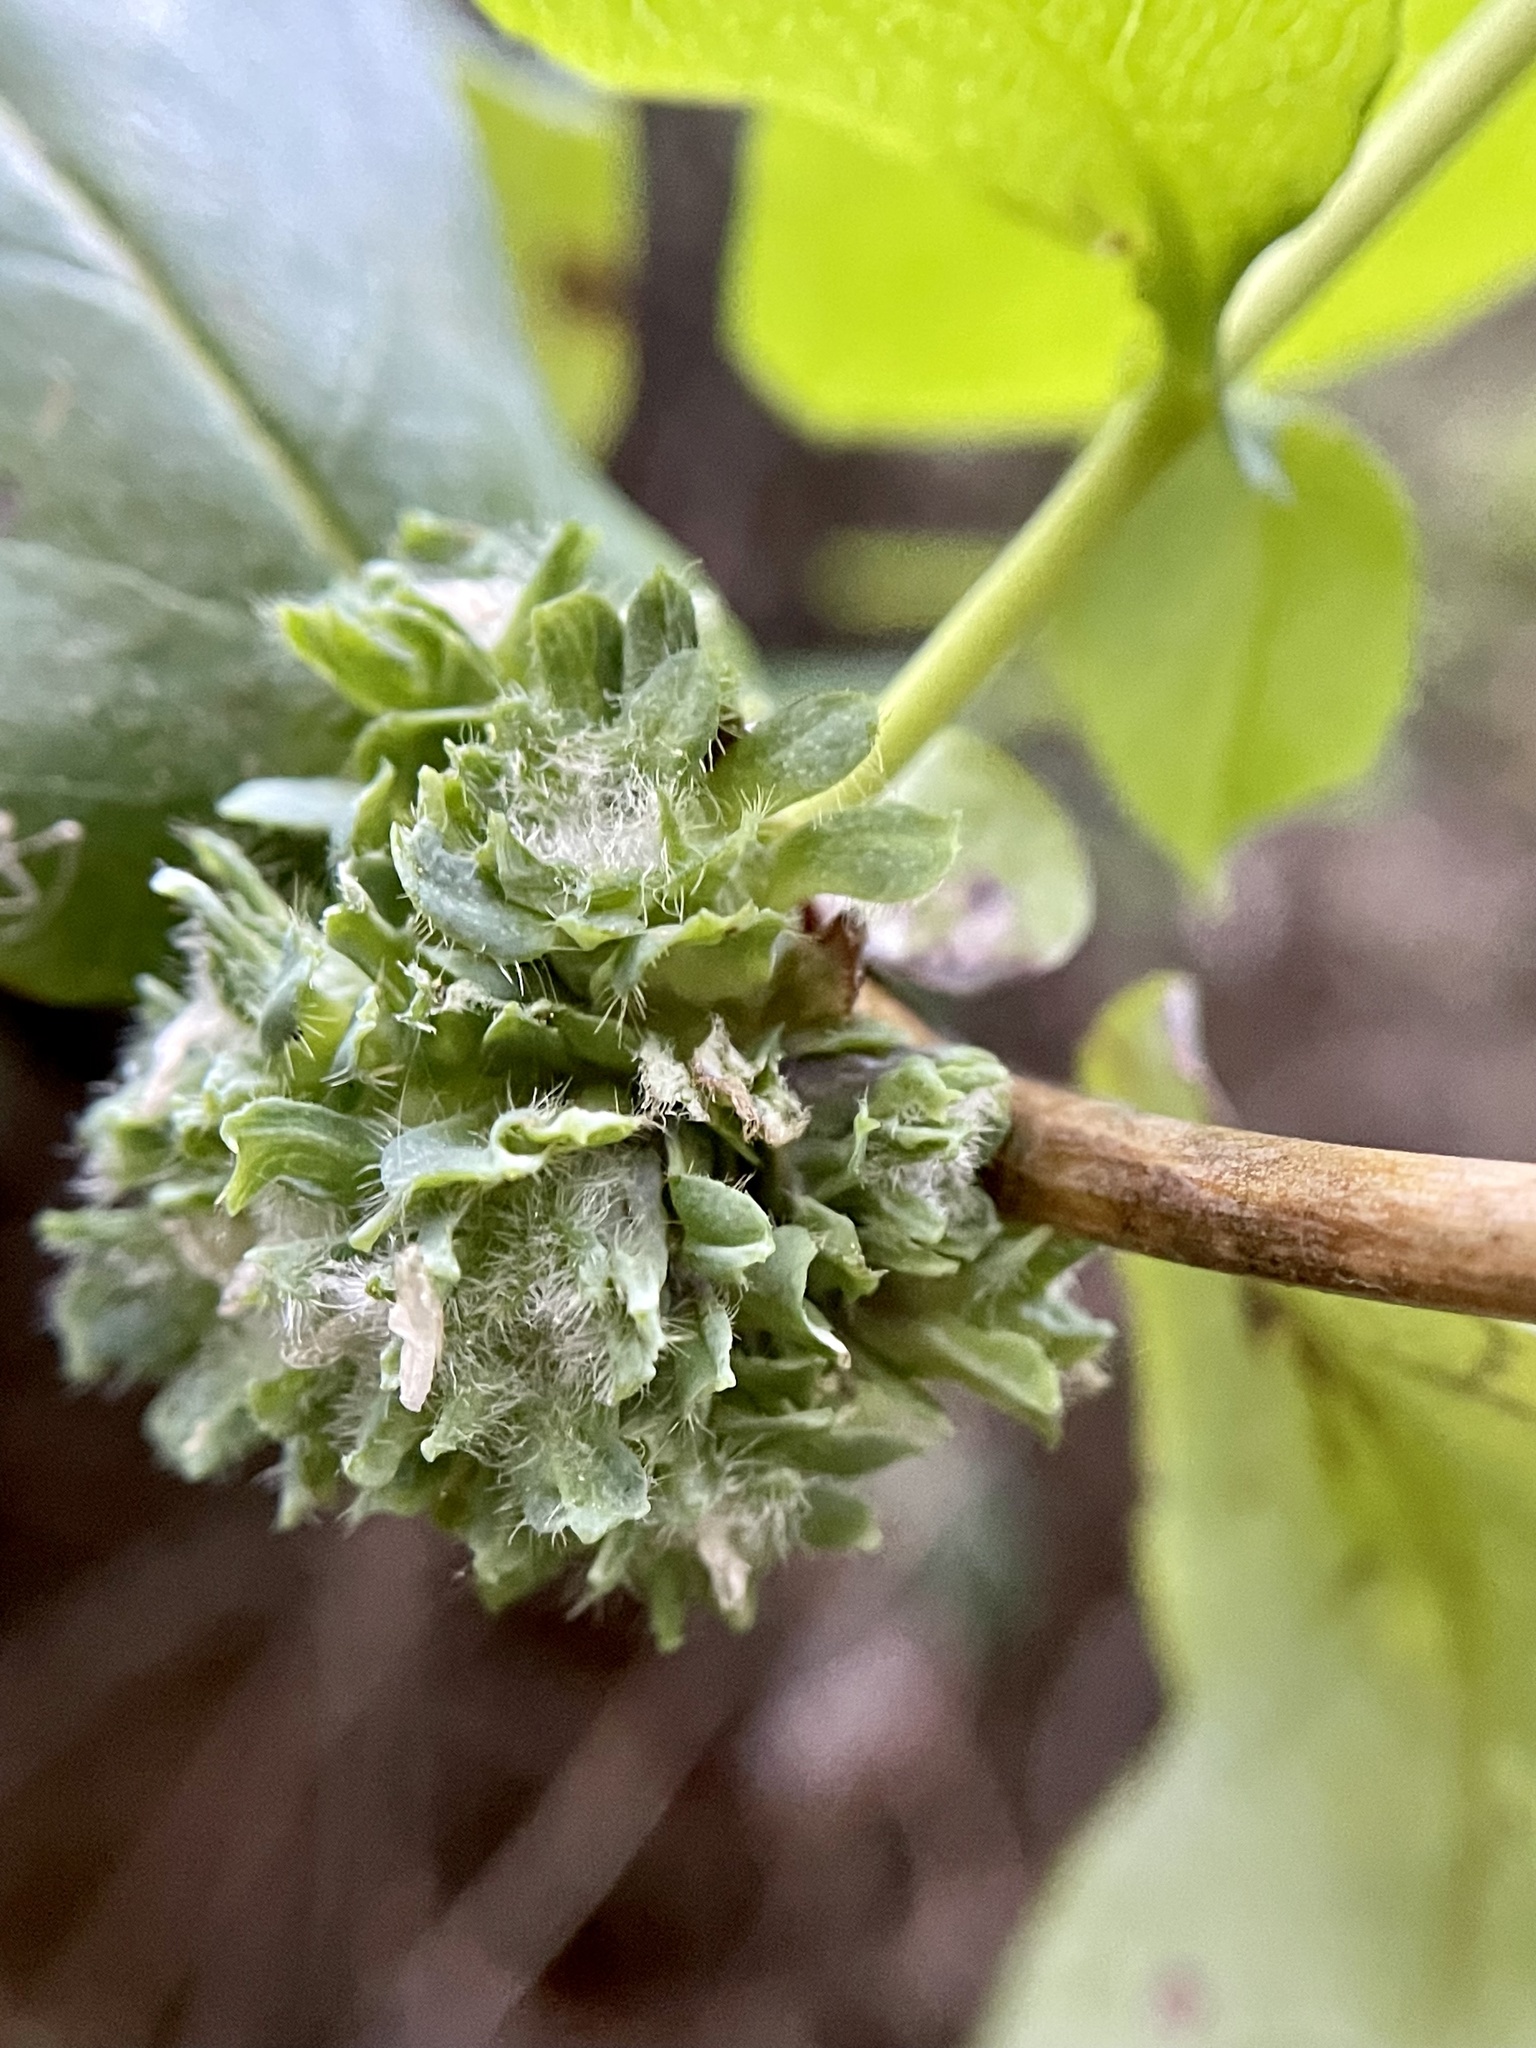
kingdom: Animalia
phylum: Arthropoda
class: Insecta
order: Diptera
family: Cecidomyiidae
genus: Lonicerae
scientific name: Lonicerae russoi
